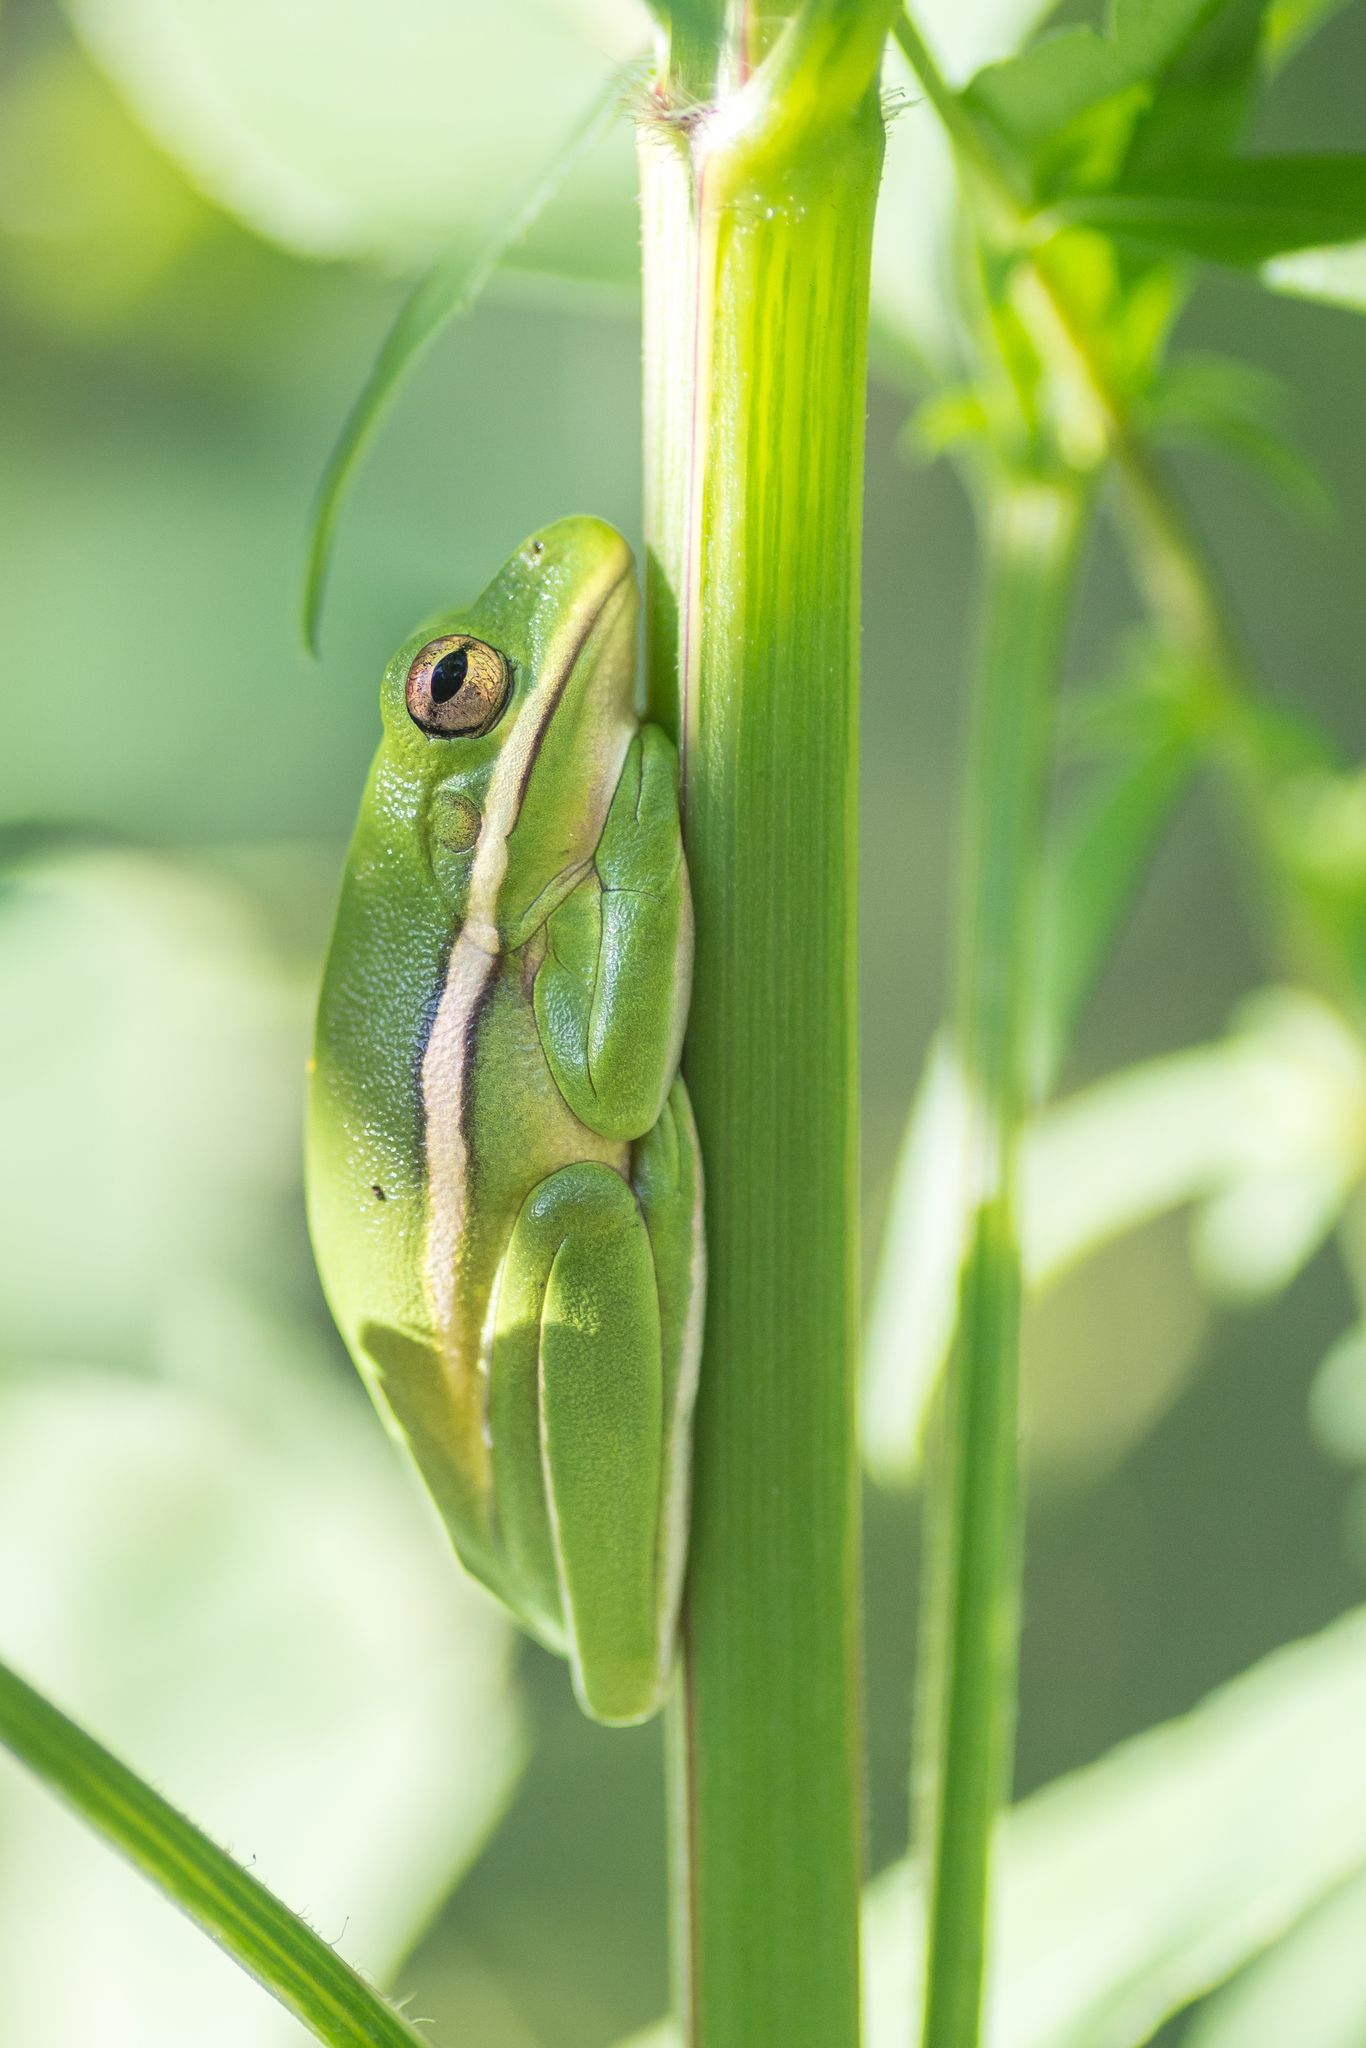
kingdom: Animalia
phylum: Chordata
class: Amphibia
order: Anura
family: Hylidae
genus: Dryophytes
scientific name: Dryophytes cinereus
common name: Green treefrog
